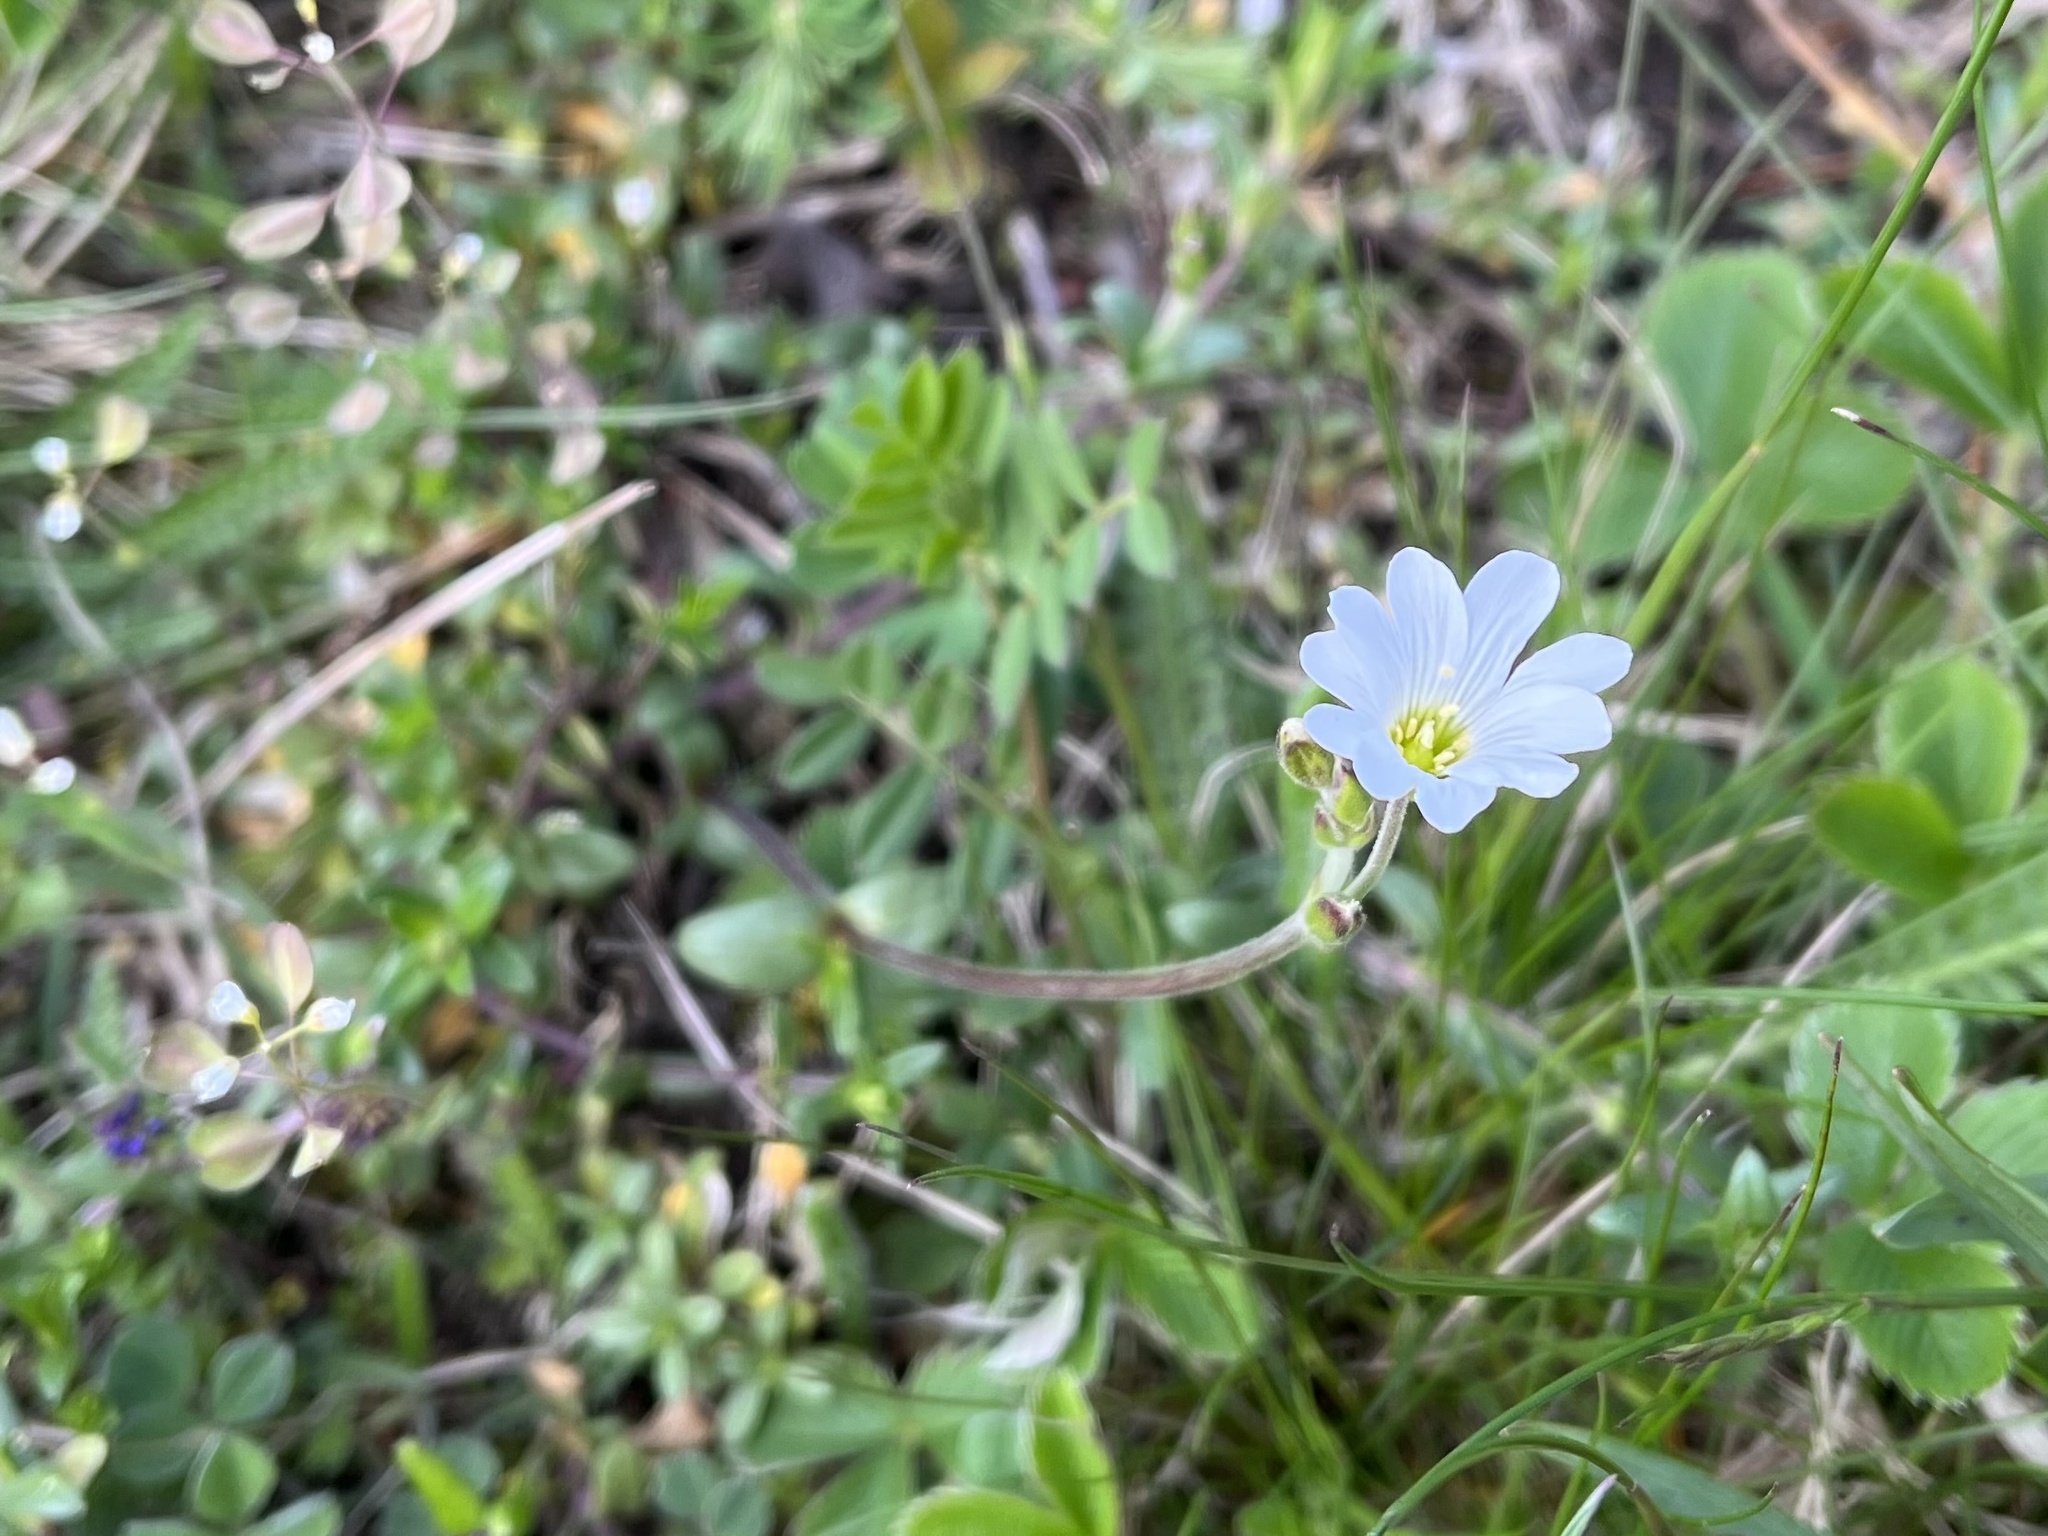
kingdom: Plantae
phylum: Tracheophyta
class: Magnoliopsida
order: Caryophyllales
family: Caryophyllaceae
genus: Cerastium
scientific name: Cerastium arvense
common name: Field mouse-ear
